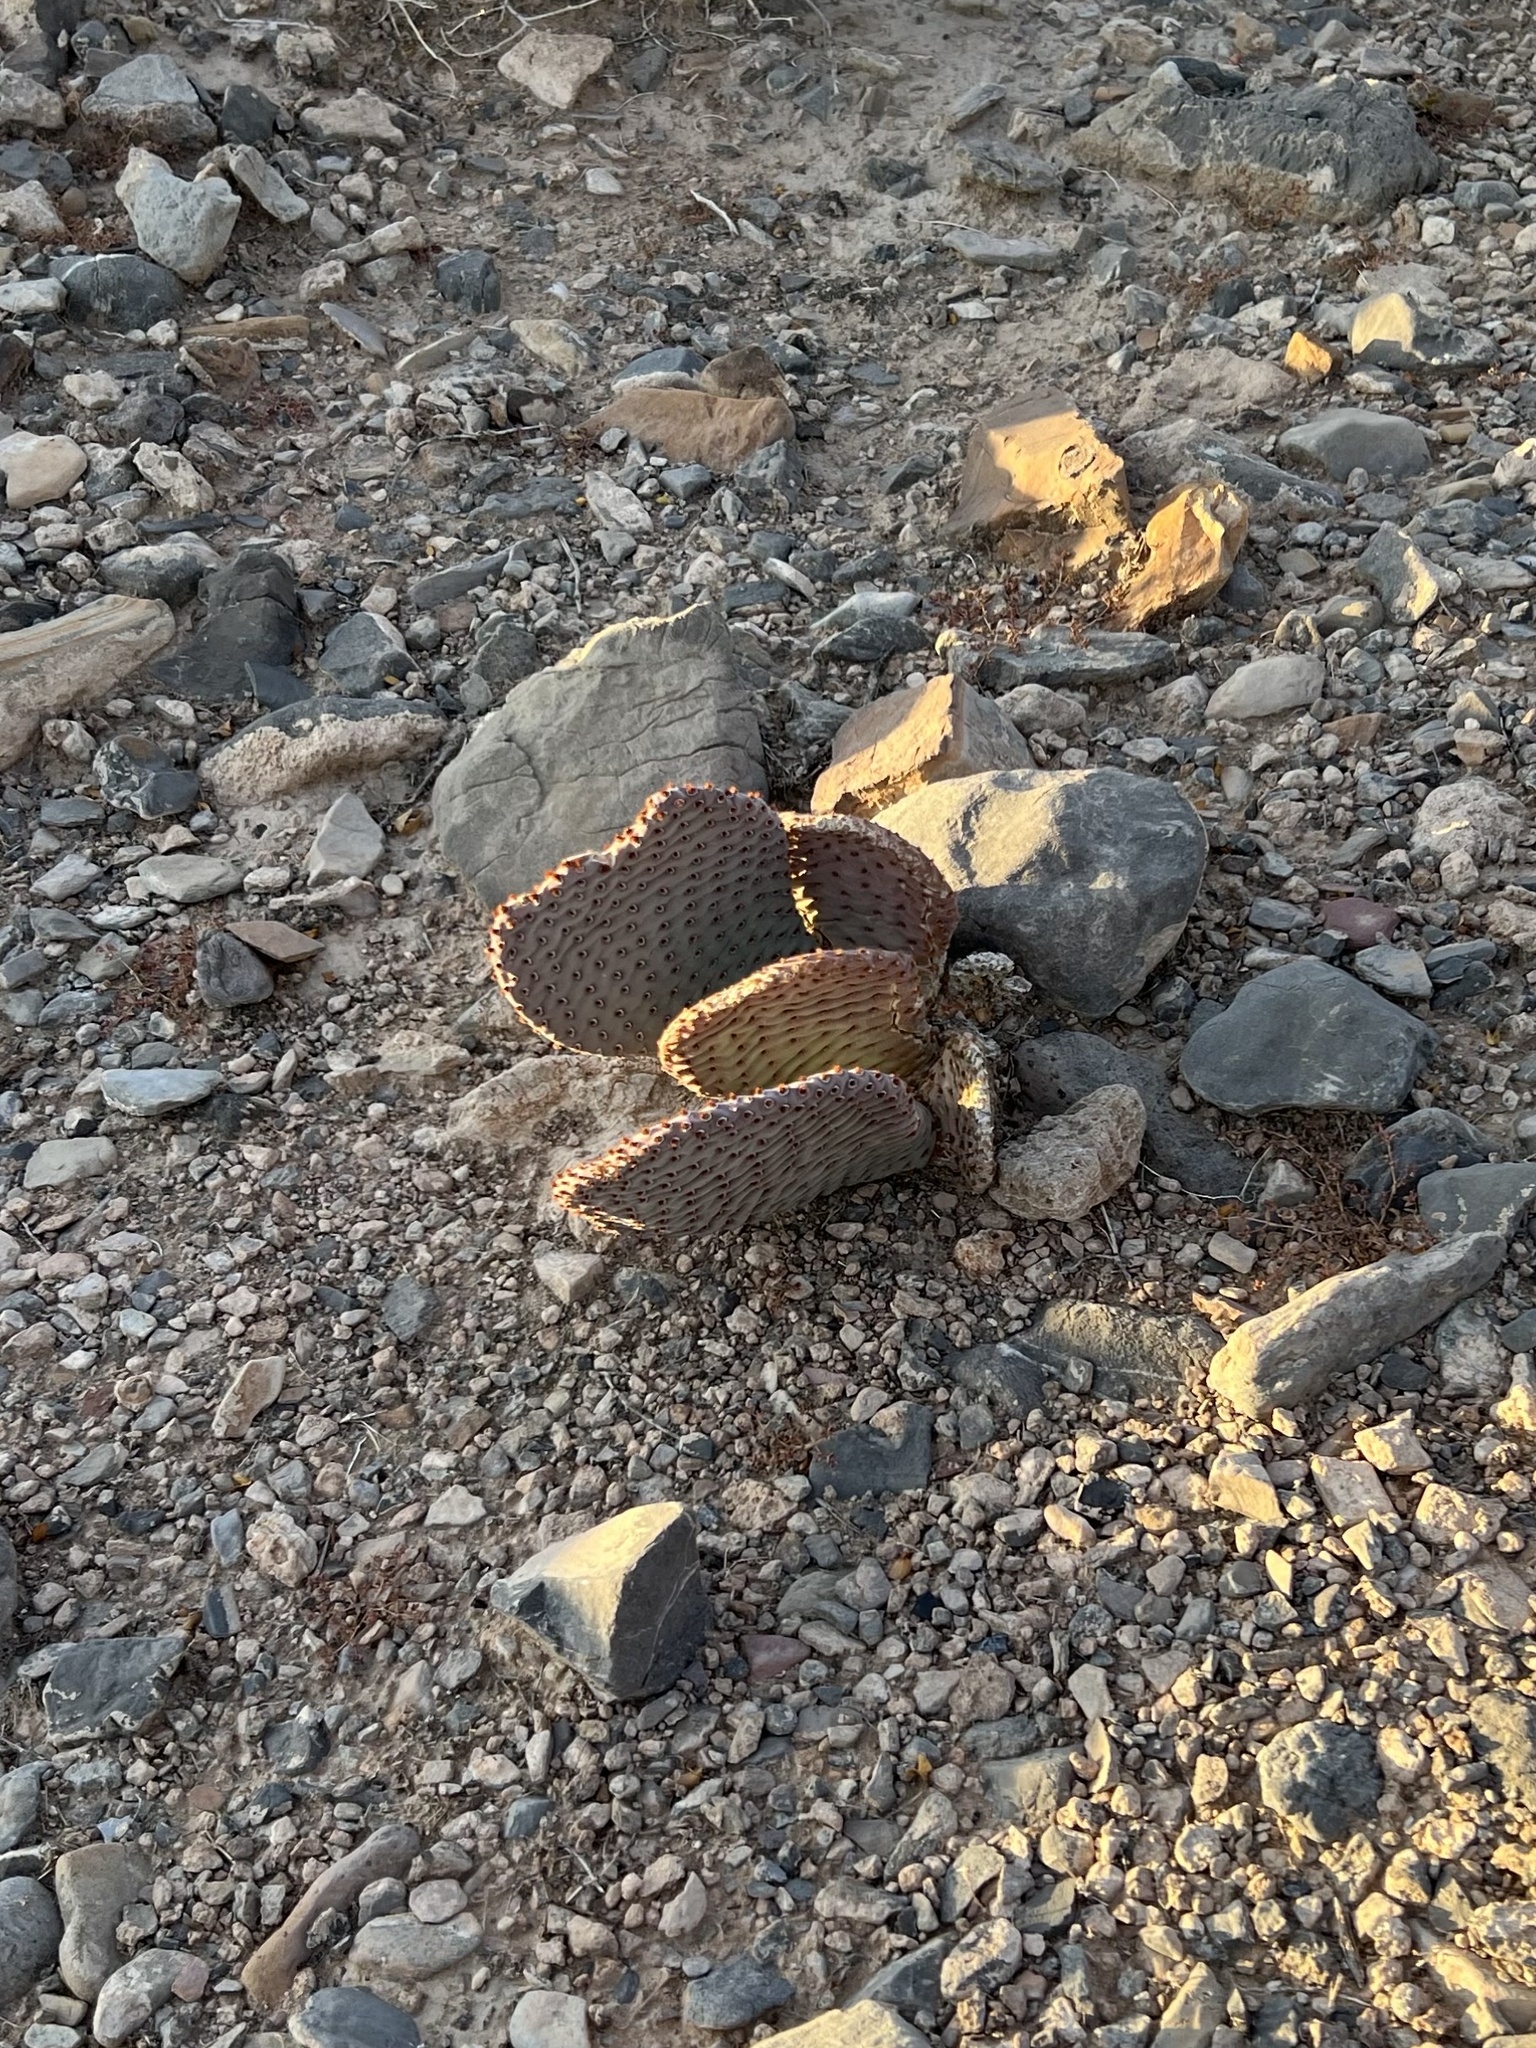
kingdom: Plantae
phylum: Tracheophyta
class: Magnoliopsida
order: Caryophyllales
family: Cactaceae
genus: Opuntia
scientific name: Opuntia basilaris
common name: Beavertail prickly-pear
